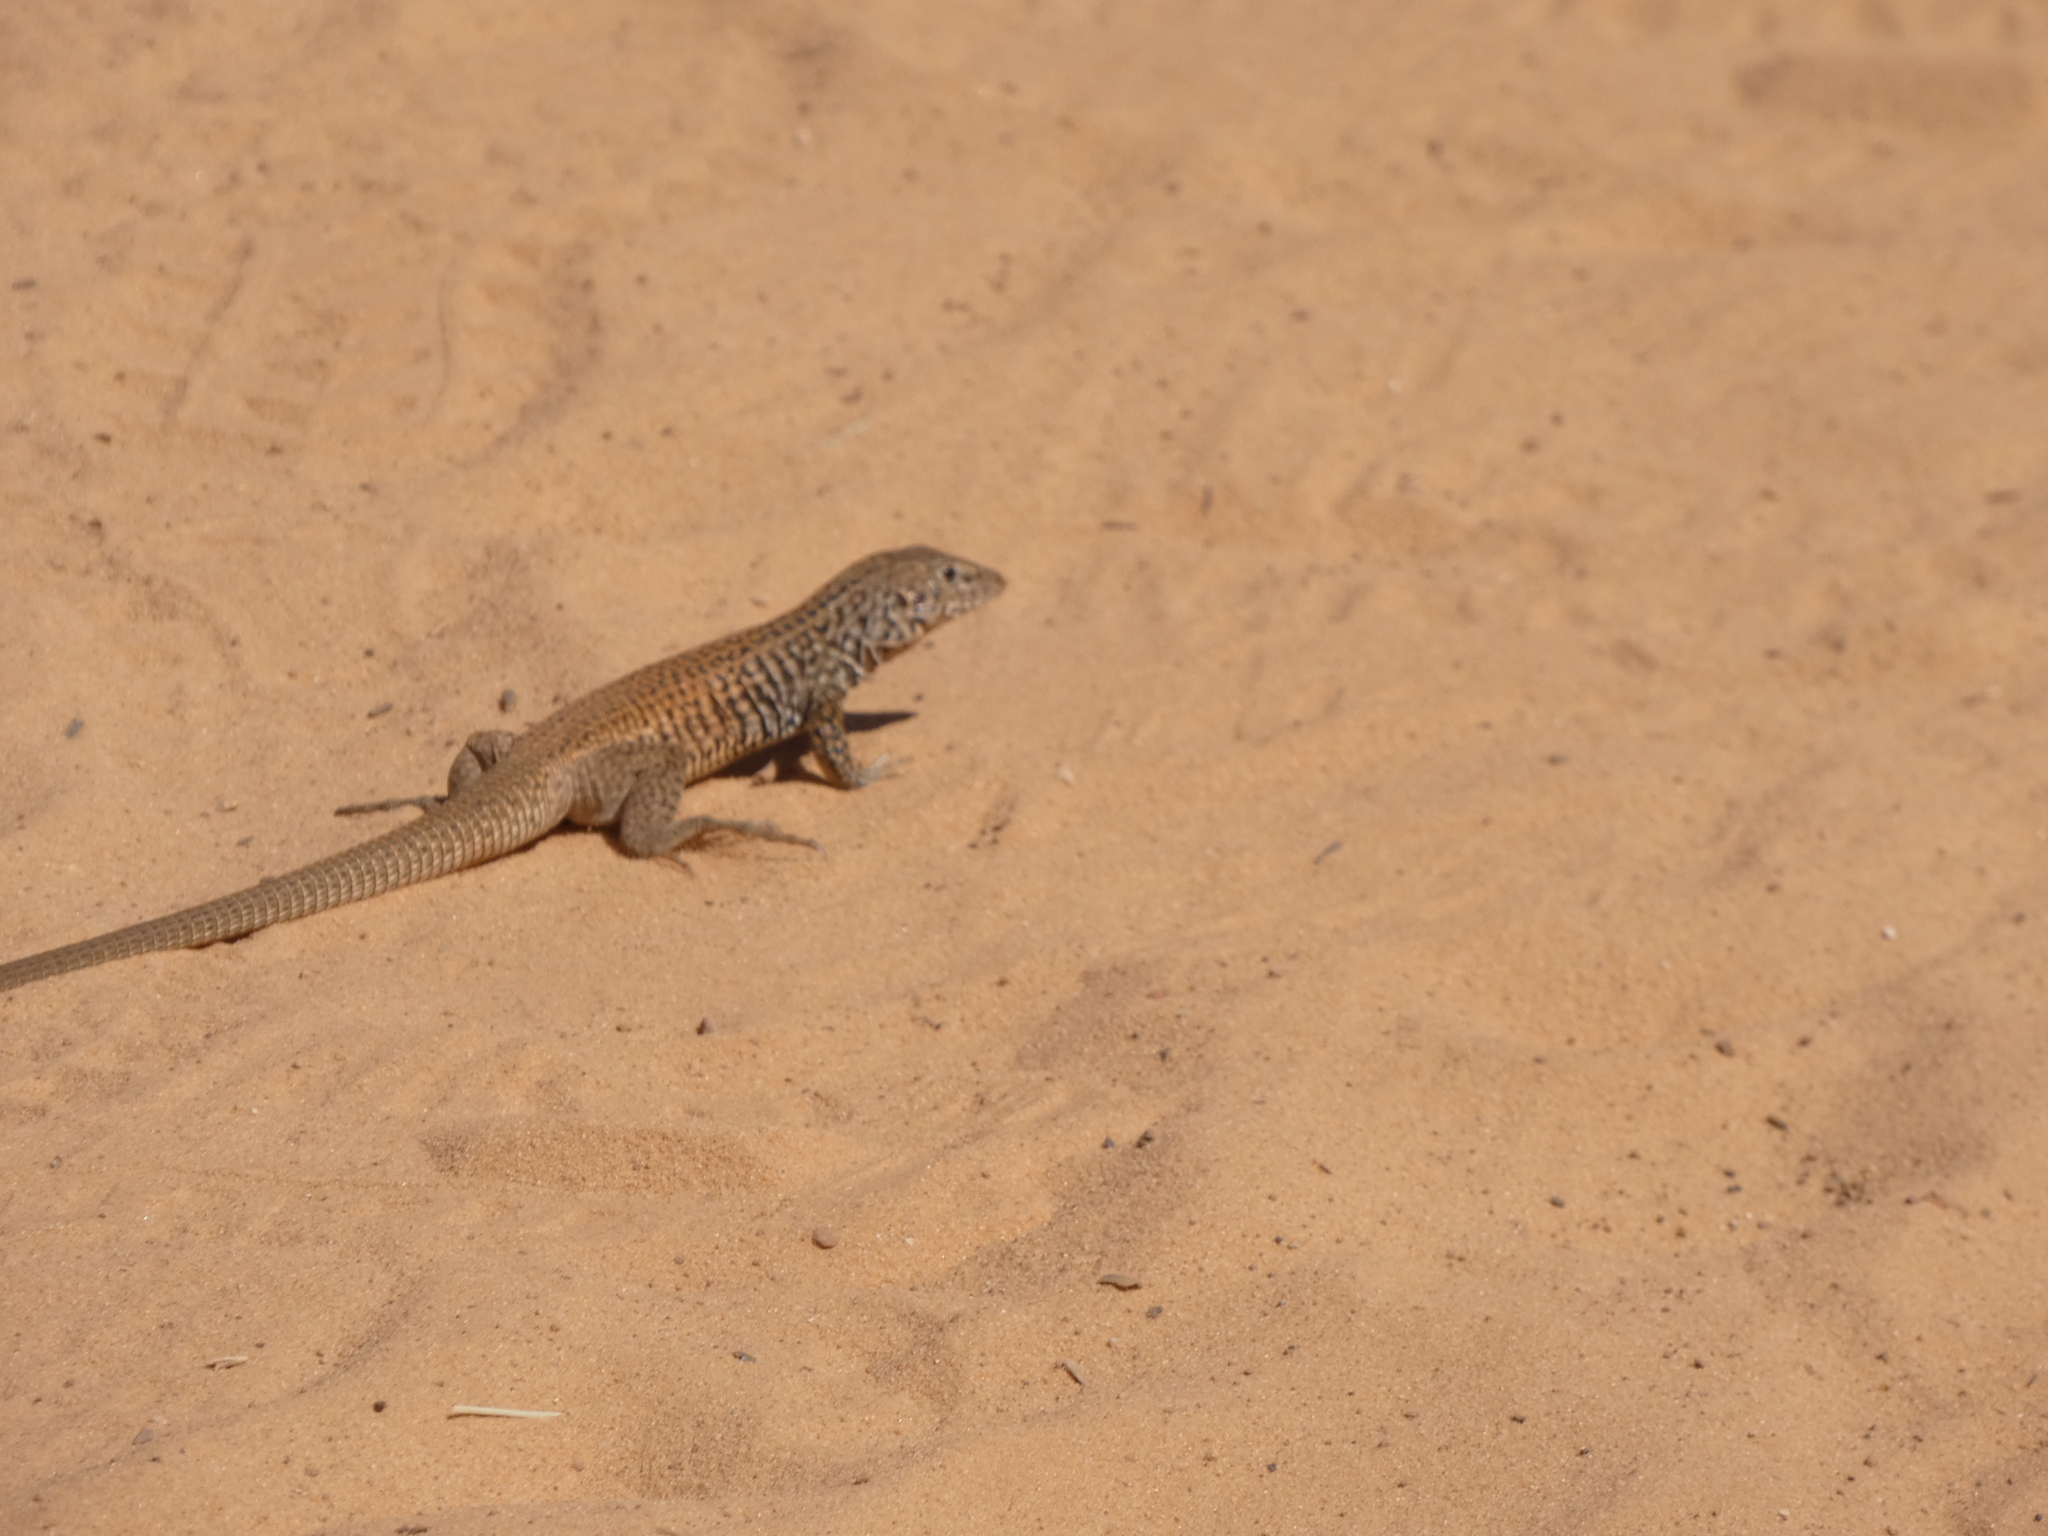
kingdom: Animalia
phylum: Chordata
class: Squamata
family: Teiidae
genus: Aspidoscelis
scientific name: Aspidoscelis tigris
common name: Tiger whiptail
